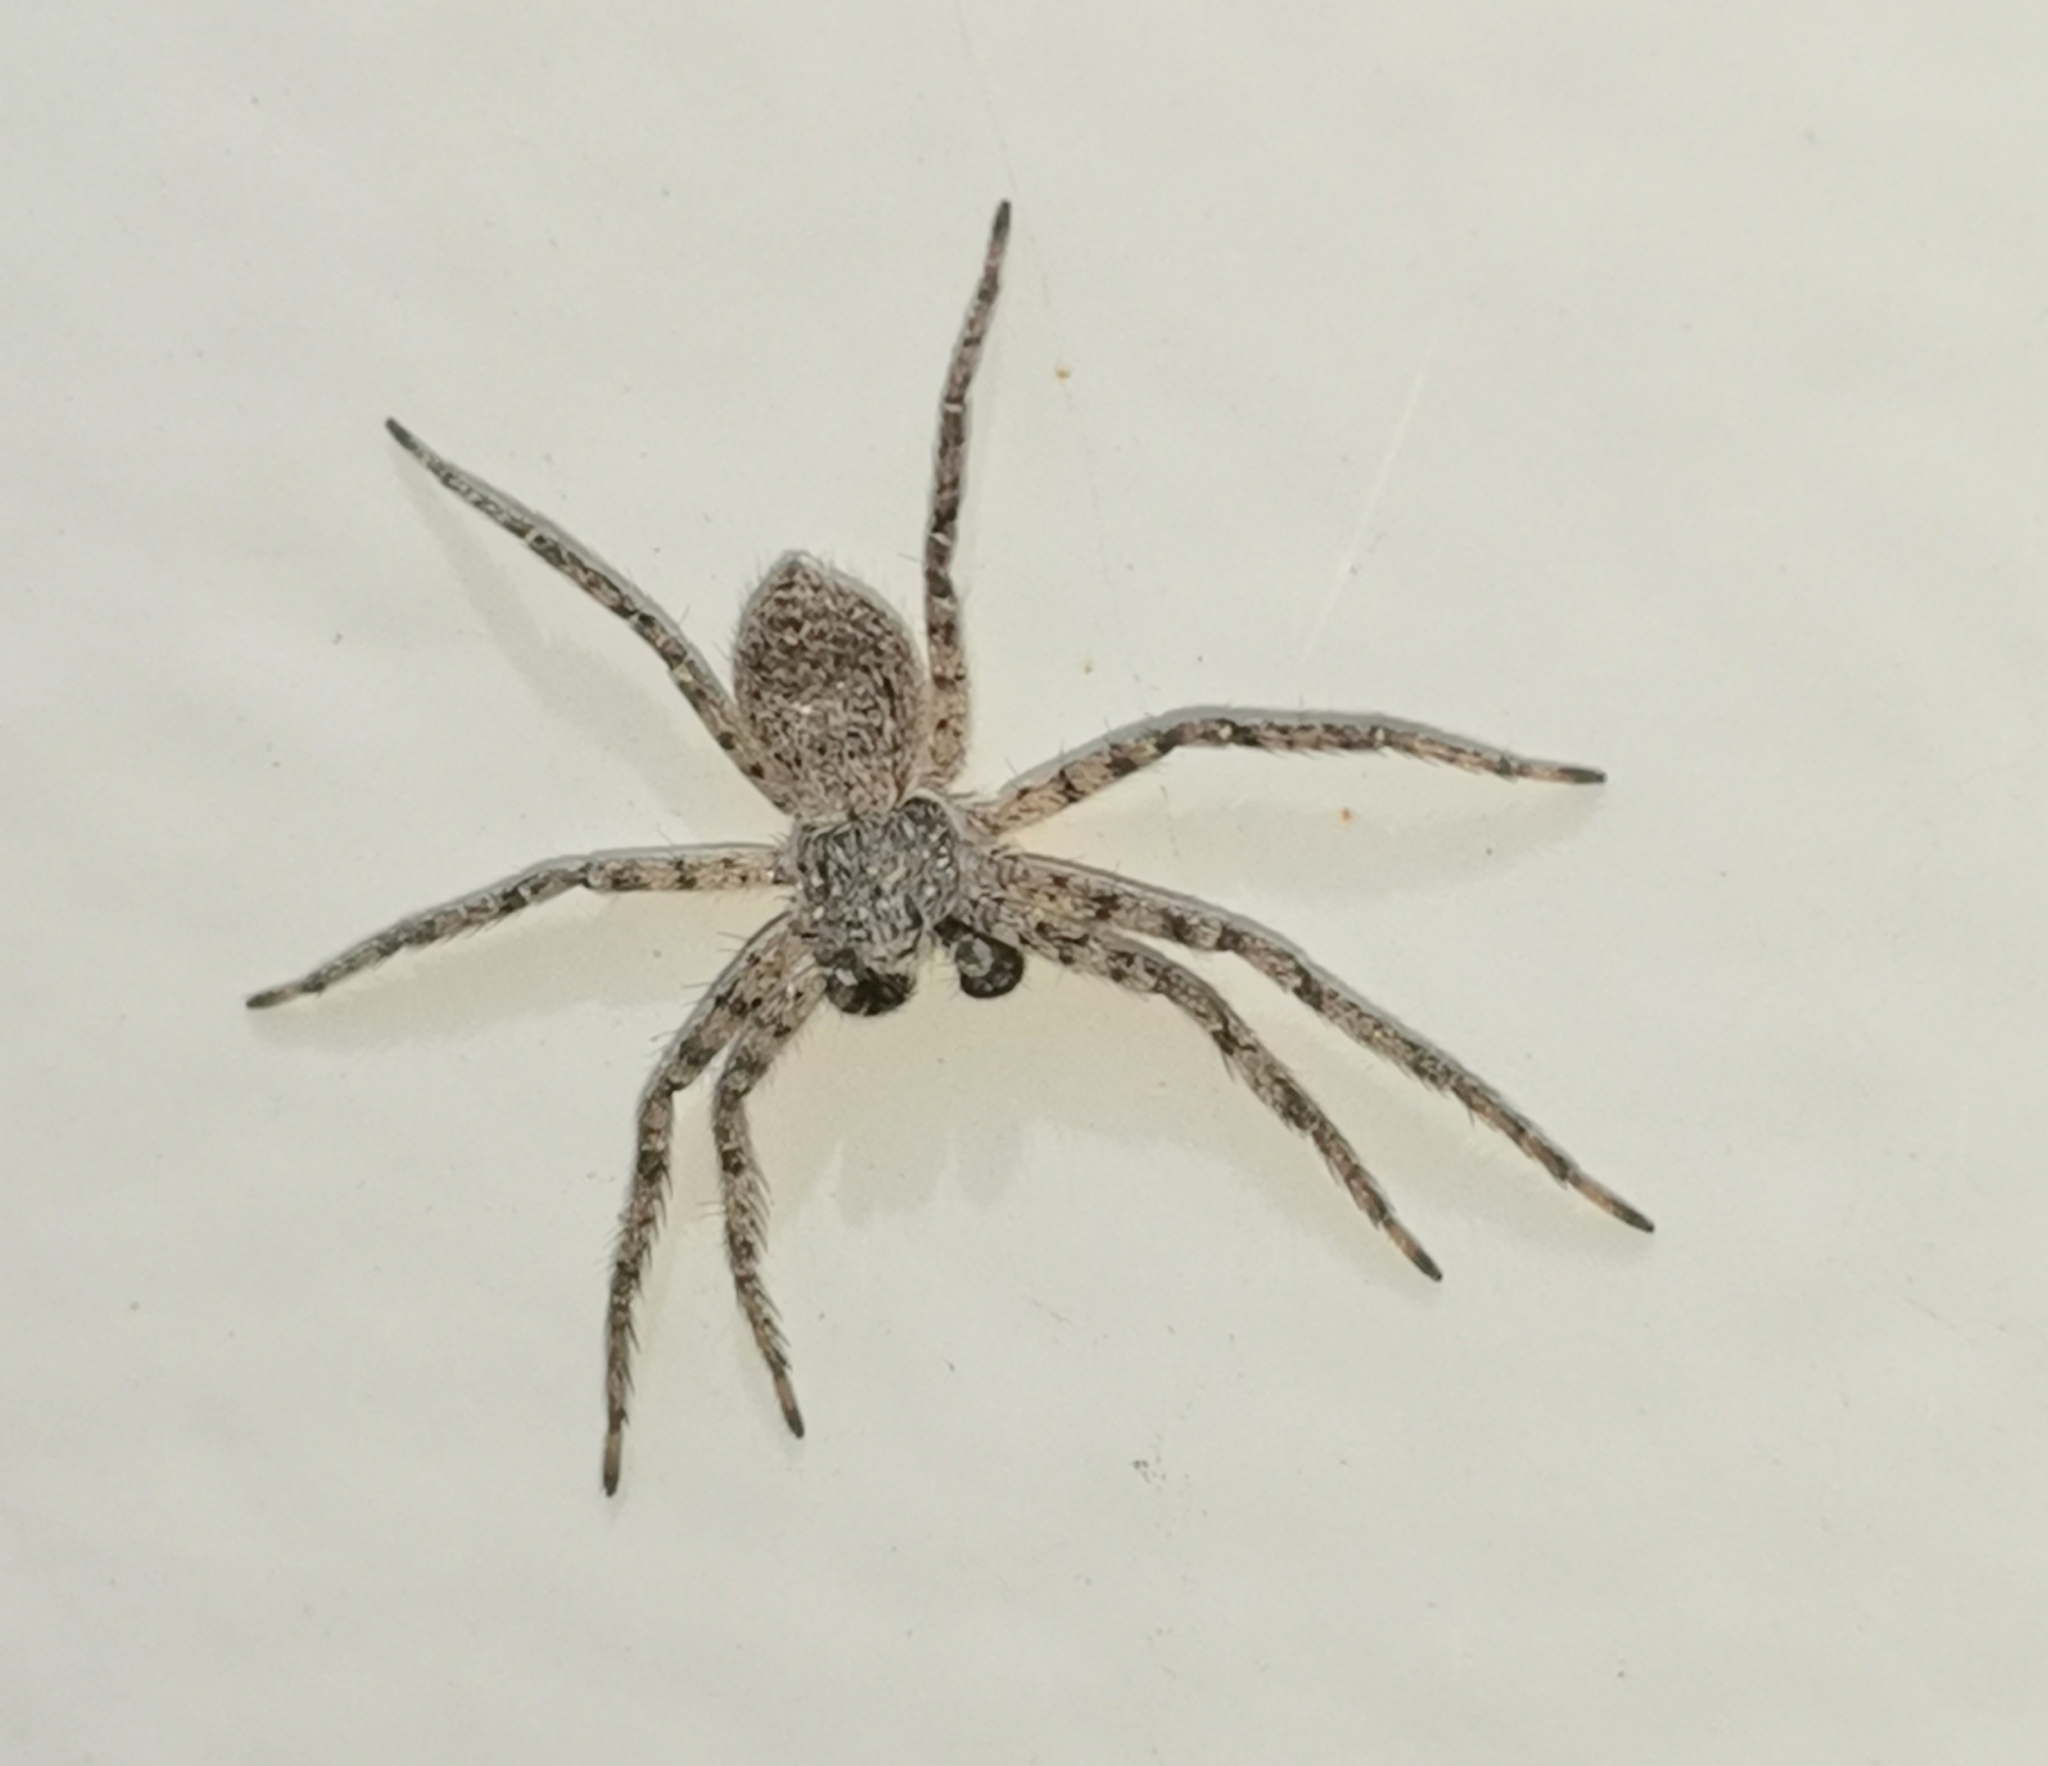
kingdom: Animalia
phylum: Arthropoda
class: Arachnida
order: Araneae
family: Philodromidae
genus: Philodromus
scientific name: Philodromus emarginatus
